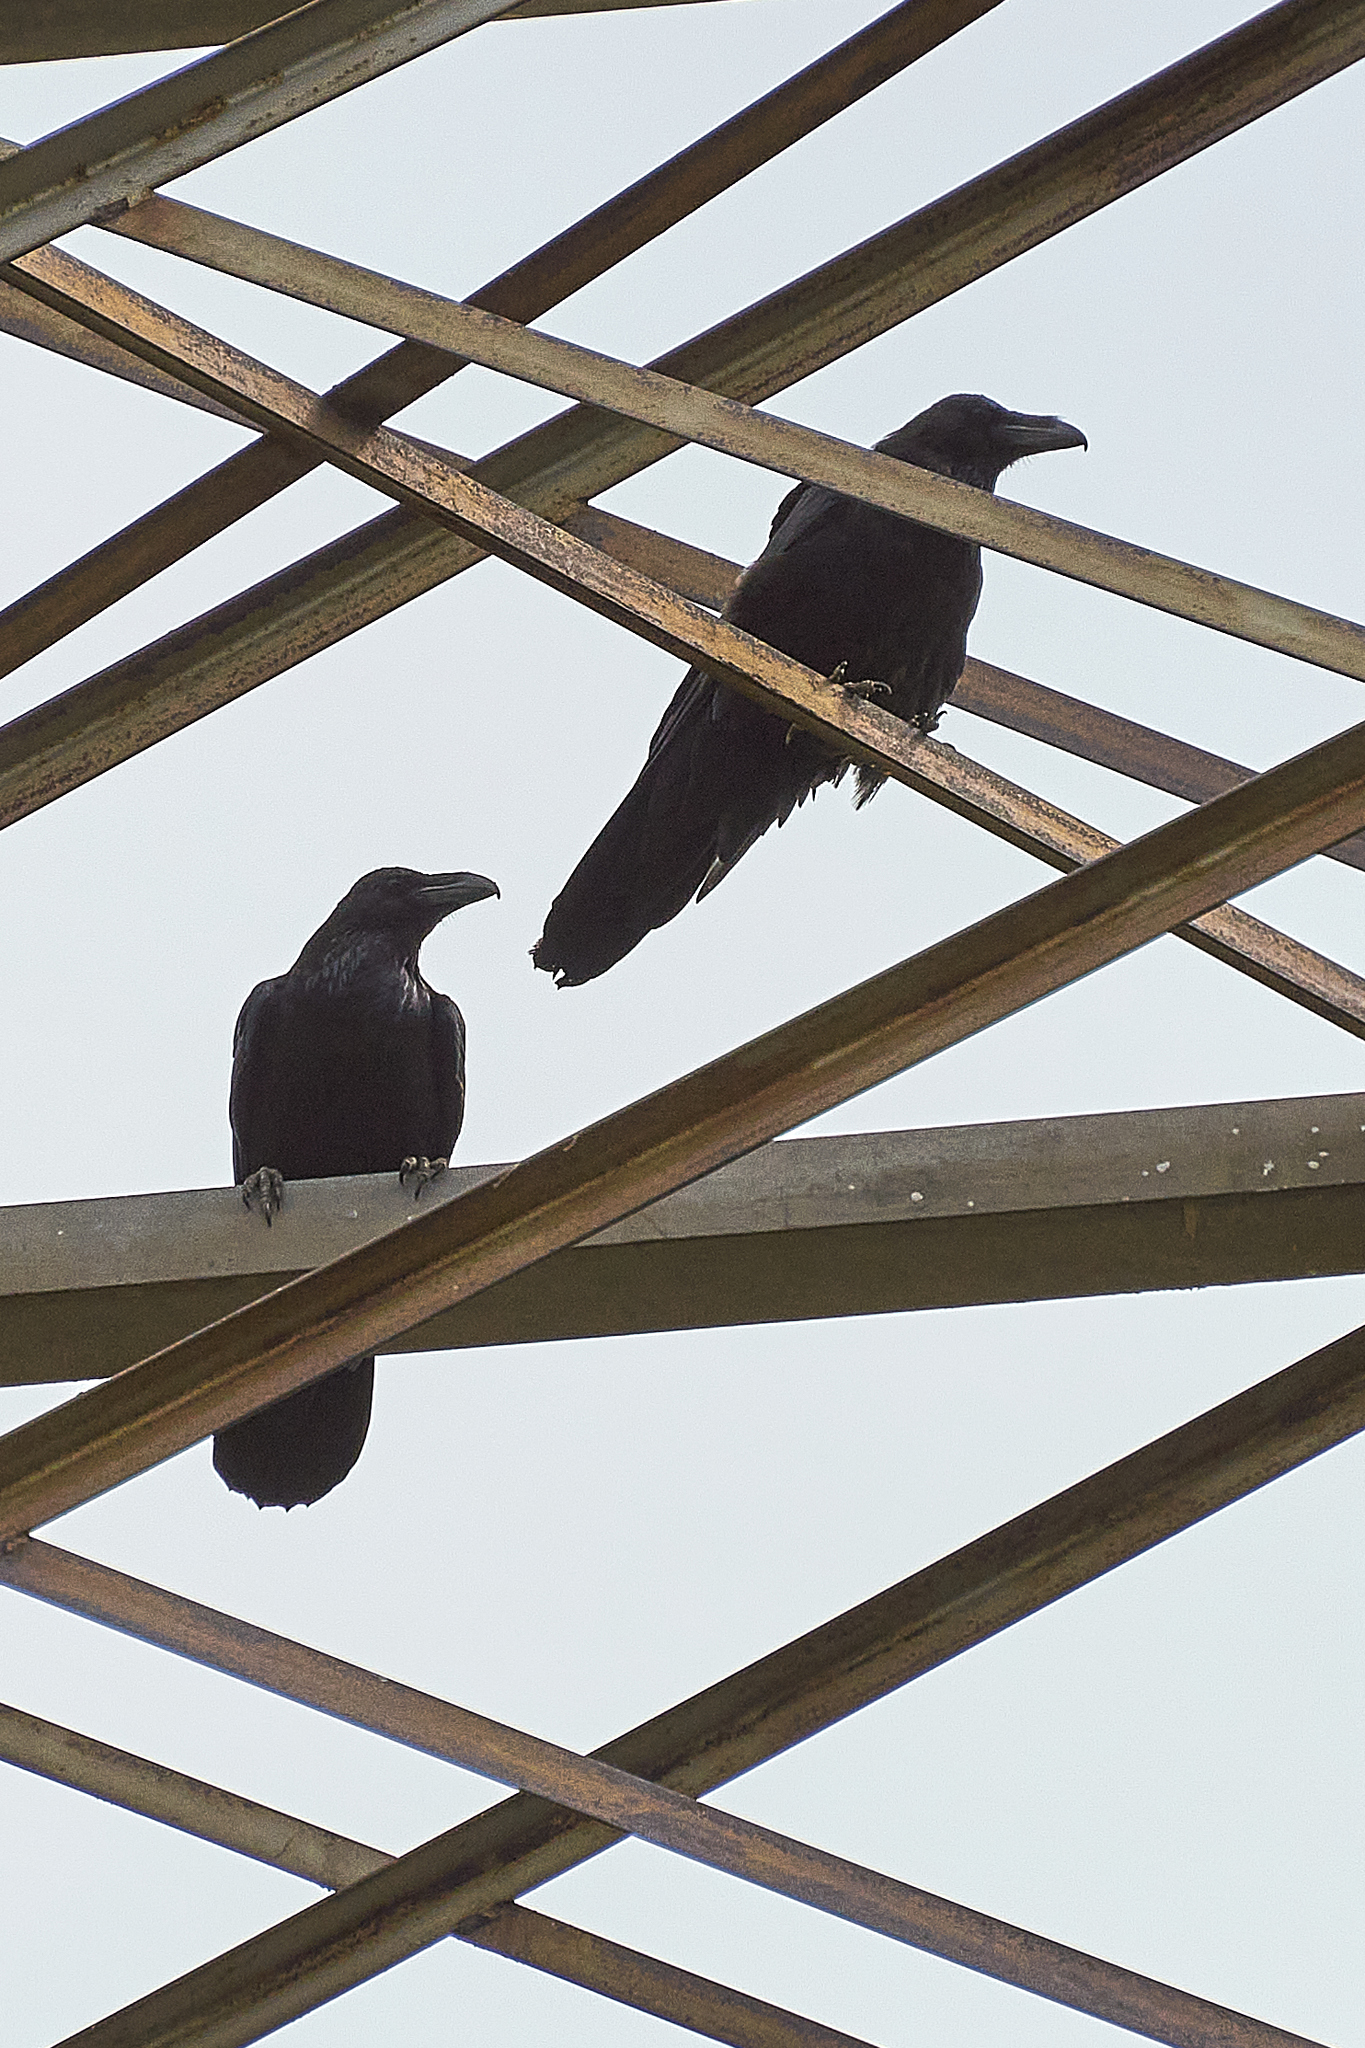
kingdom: Animalia
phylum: Chordata
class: Aves
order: Passeriformes
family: Corvidae
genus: Corvus
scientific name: Corvus corax
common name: Common raven
